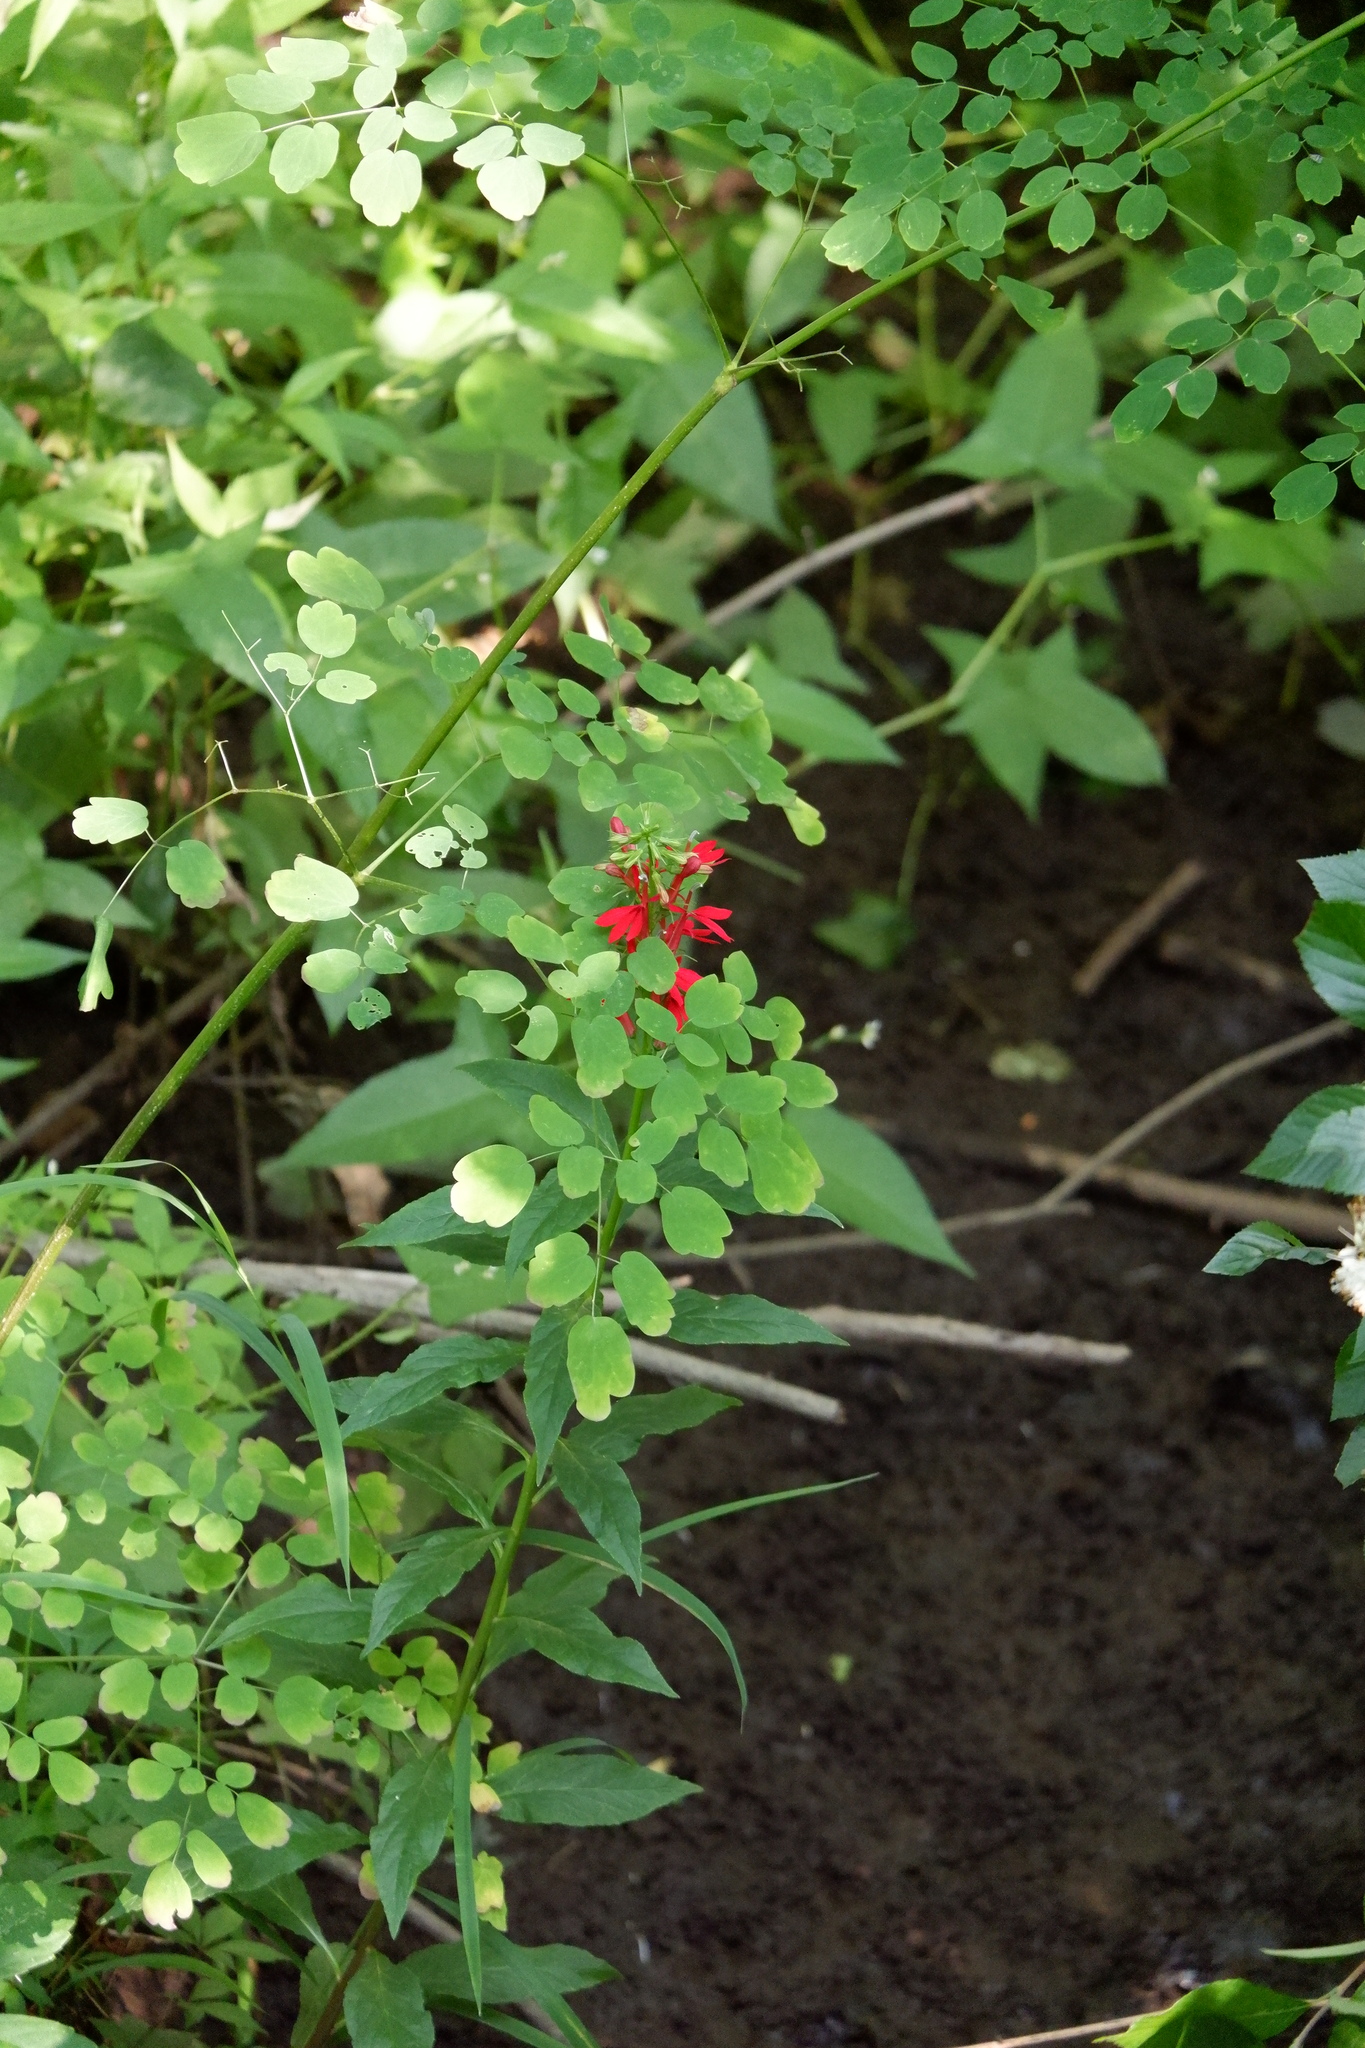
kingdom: Plantae
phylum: Tracheophyta
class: Magnoliopsida
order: Asterales
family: Campanulaceae
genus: Lobelia
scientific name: Lobelia cardinalis
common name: Cardinal flower
